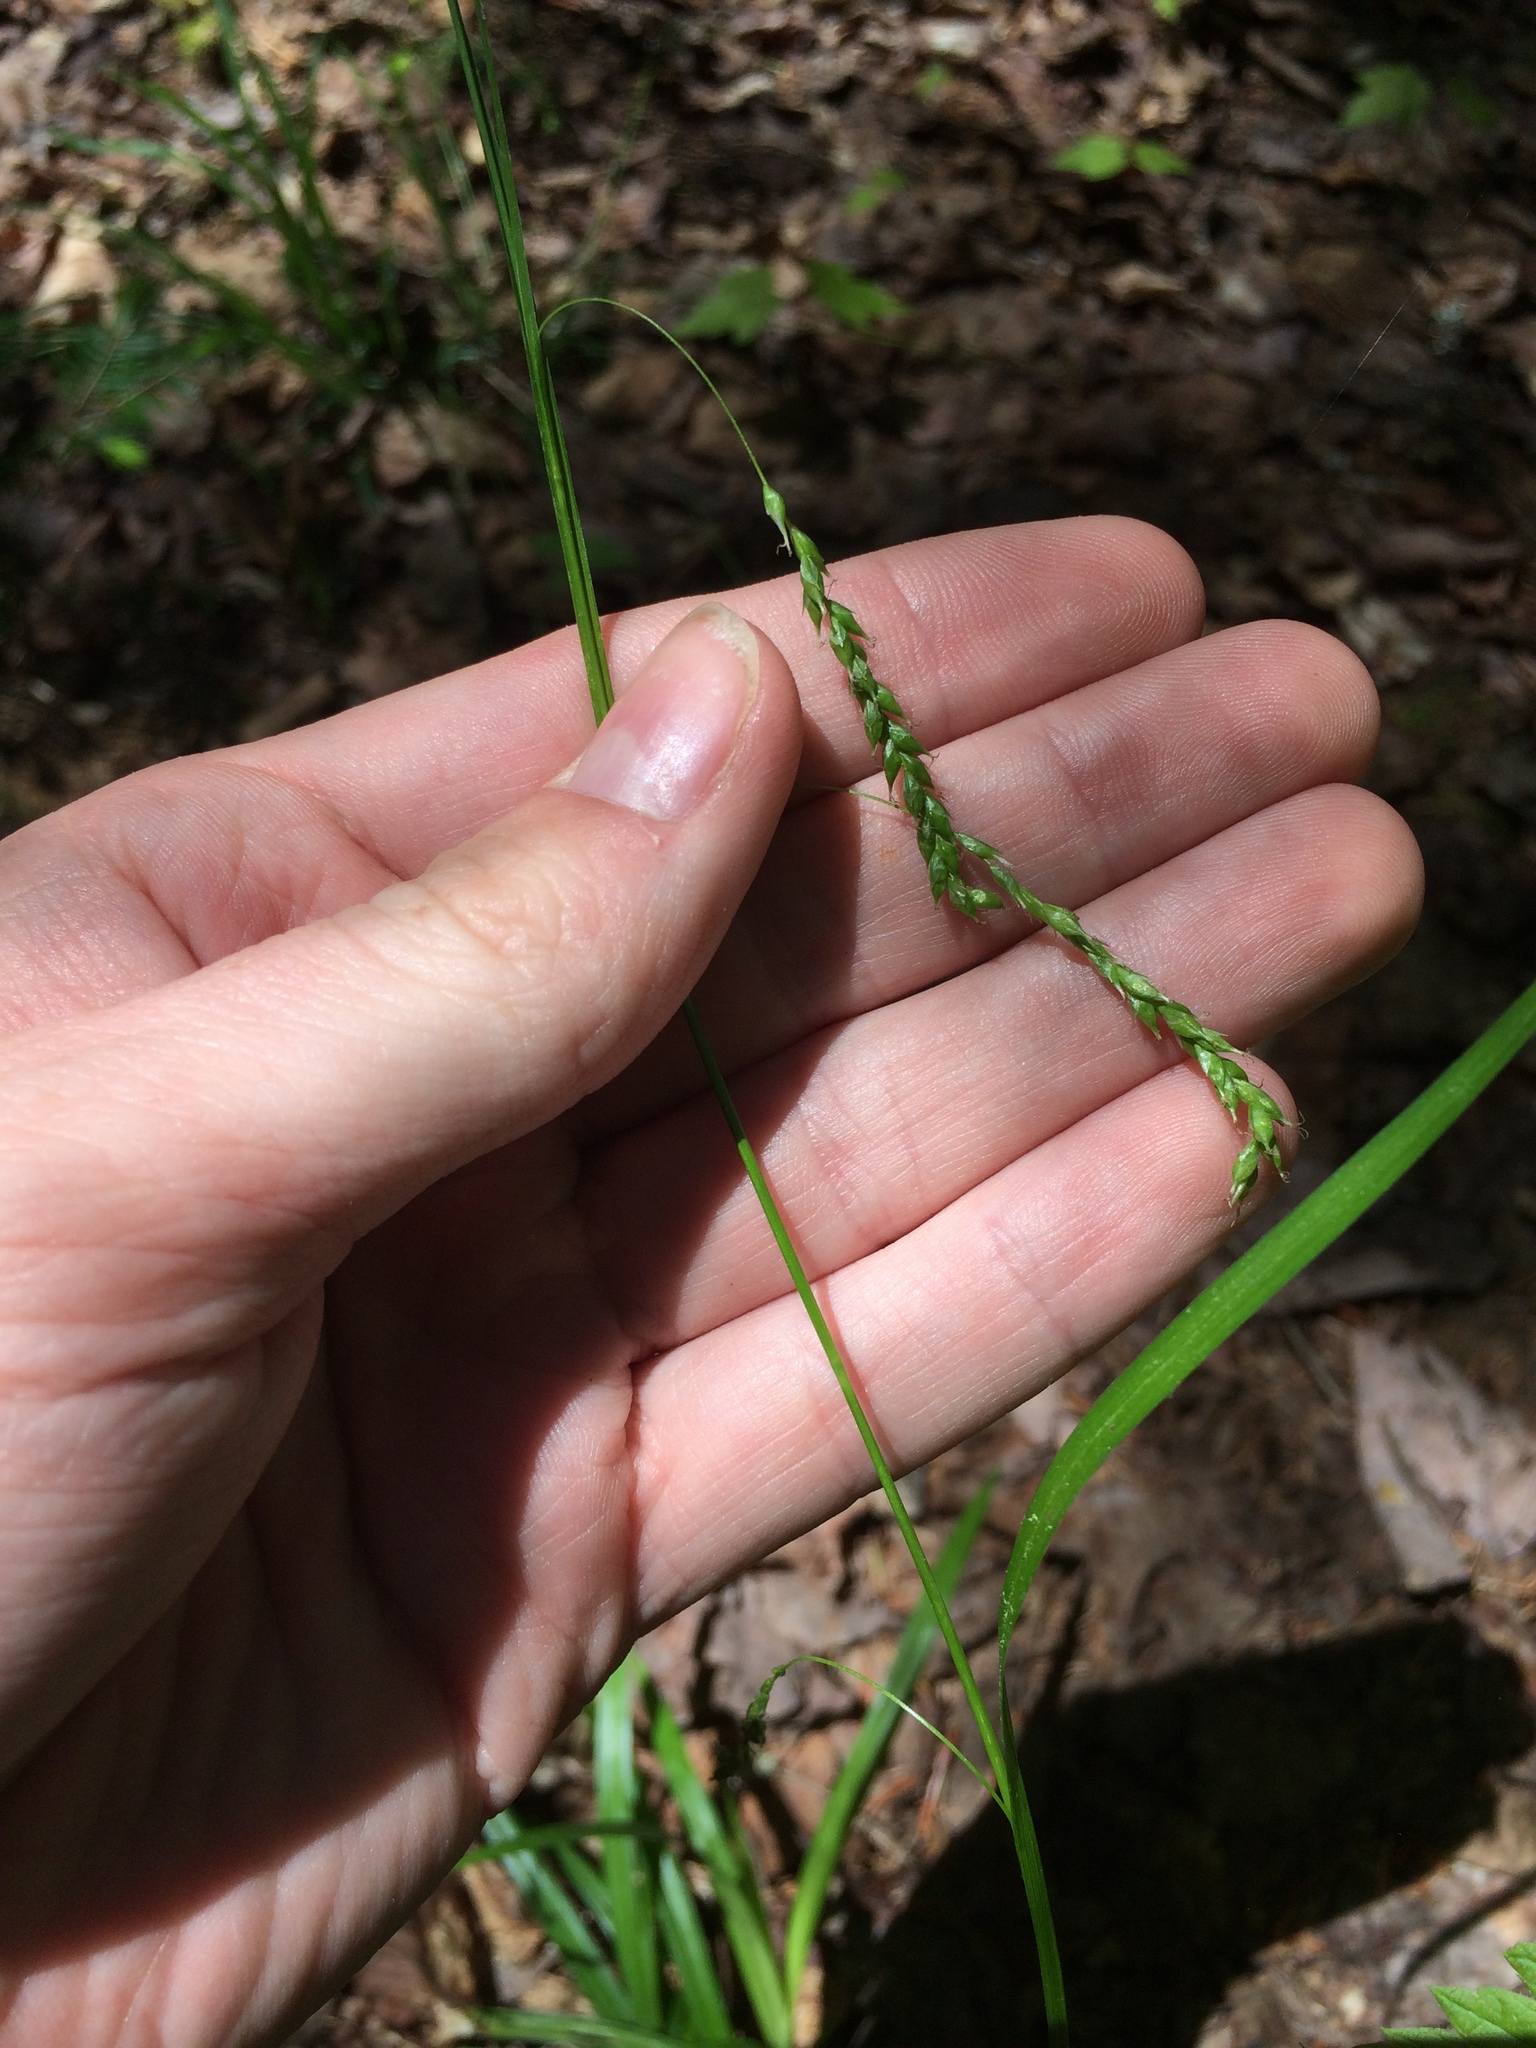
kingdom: Plantae
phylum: Tracheophyta
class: Liliopsida
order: Poales
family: Cyperaceae
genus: Carex
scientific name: Carex arctata
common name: Black sedge
